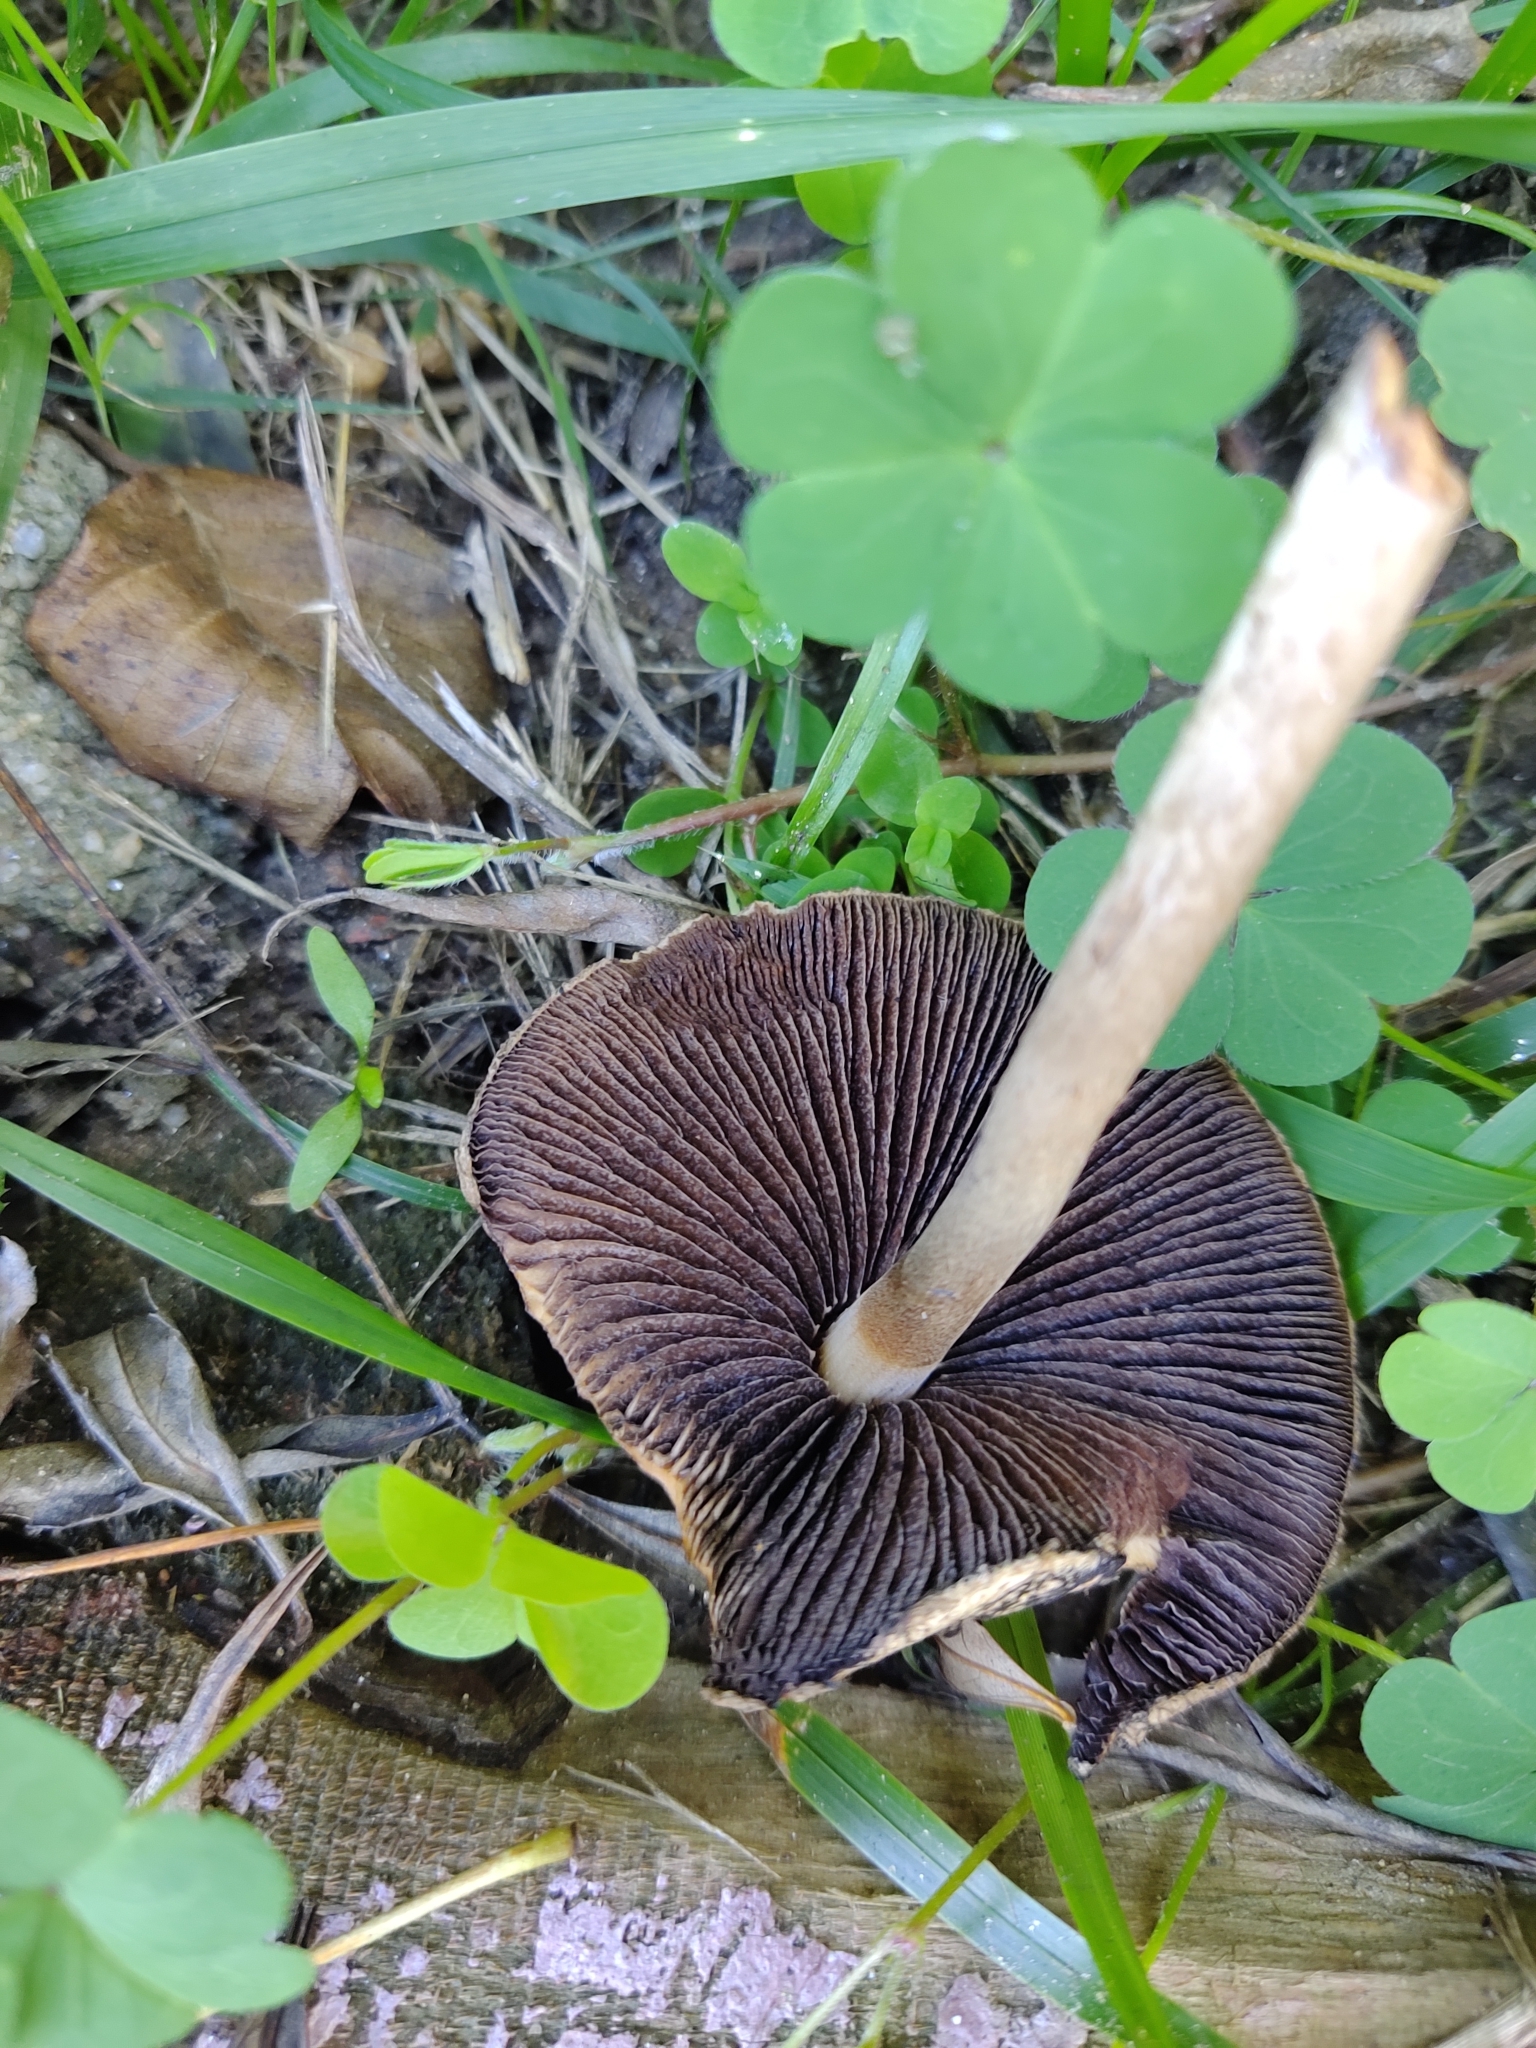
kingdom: Fungi
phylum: Basidiomycota
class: Agaricomycetes
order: Agaricales
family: Psathyrellaceae
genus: Lacrymaria
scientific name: Lacrymaria lacrymabunda
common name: Weeping widow
